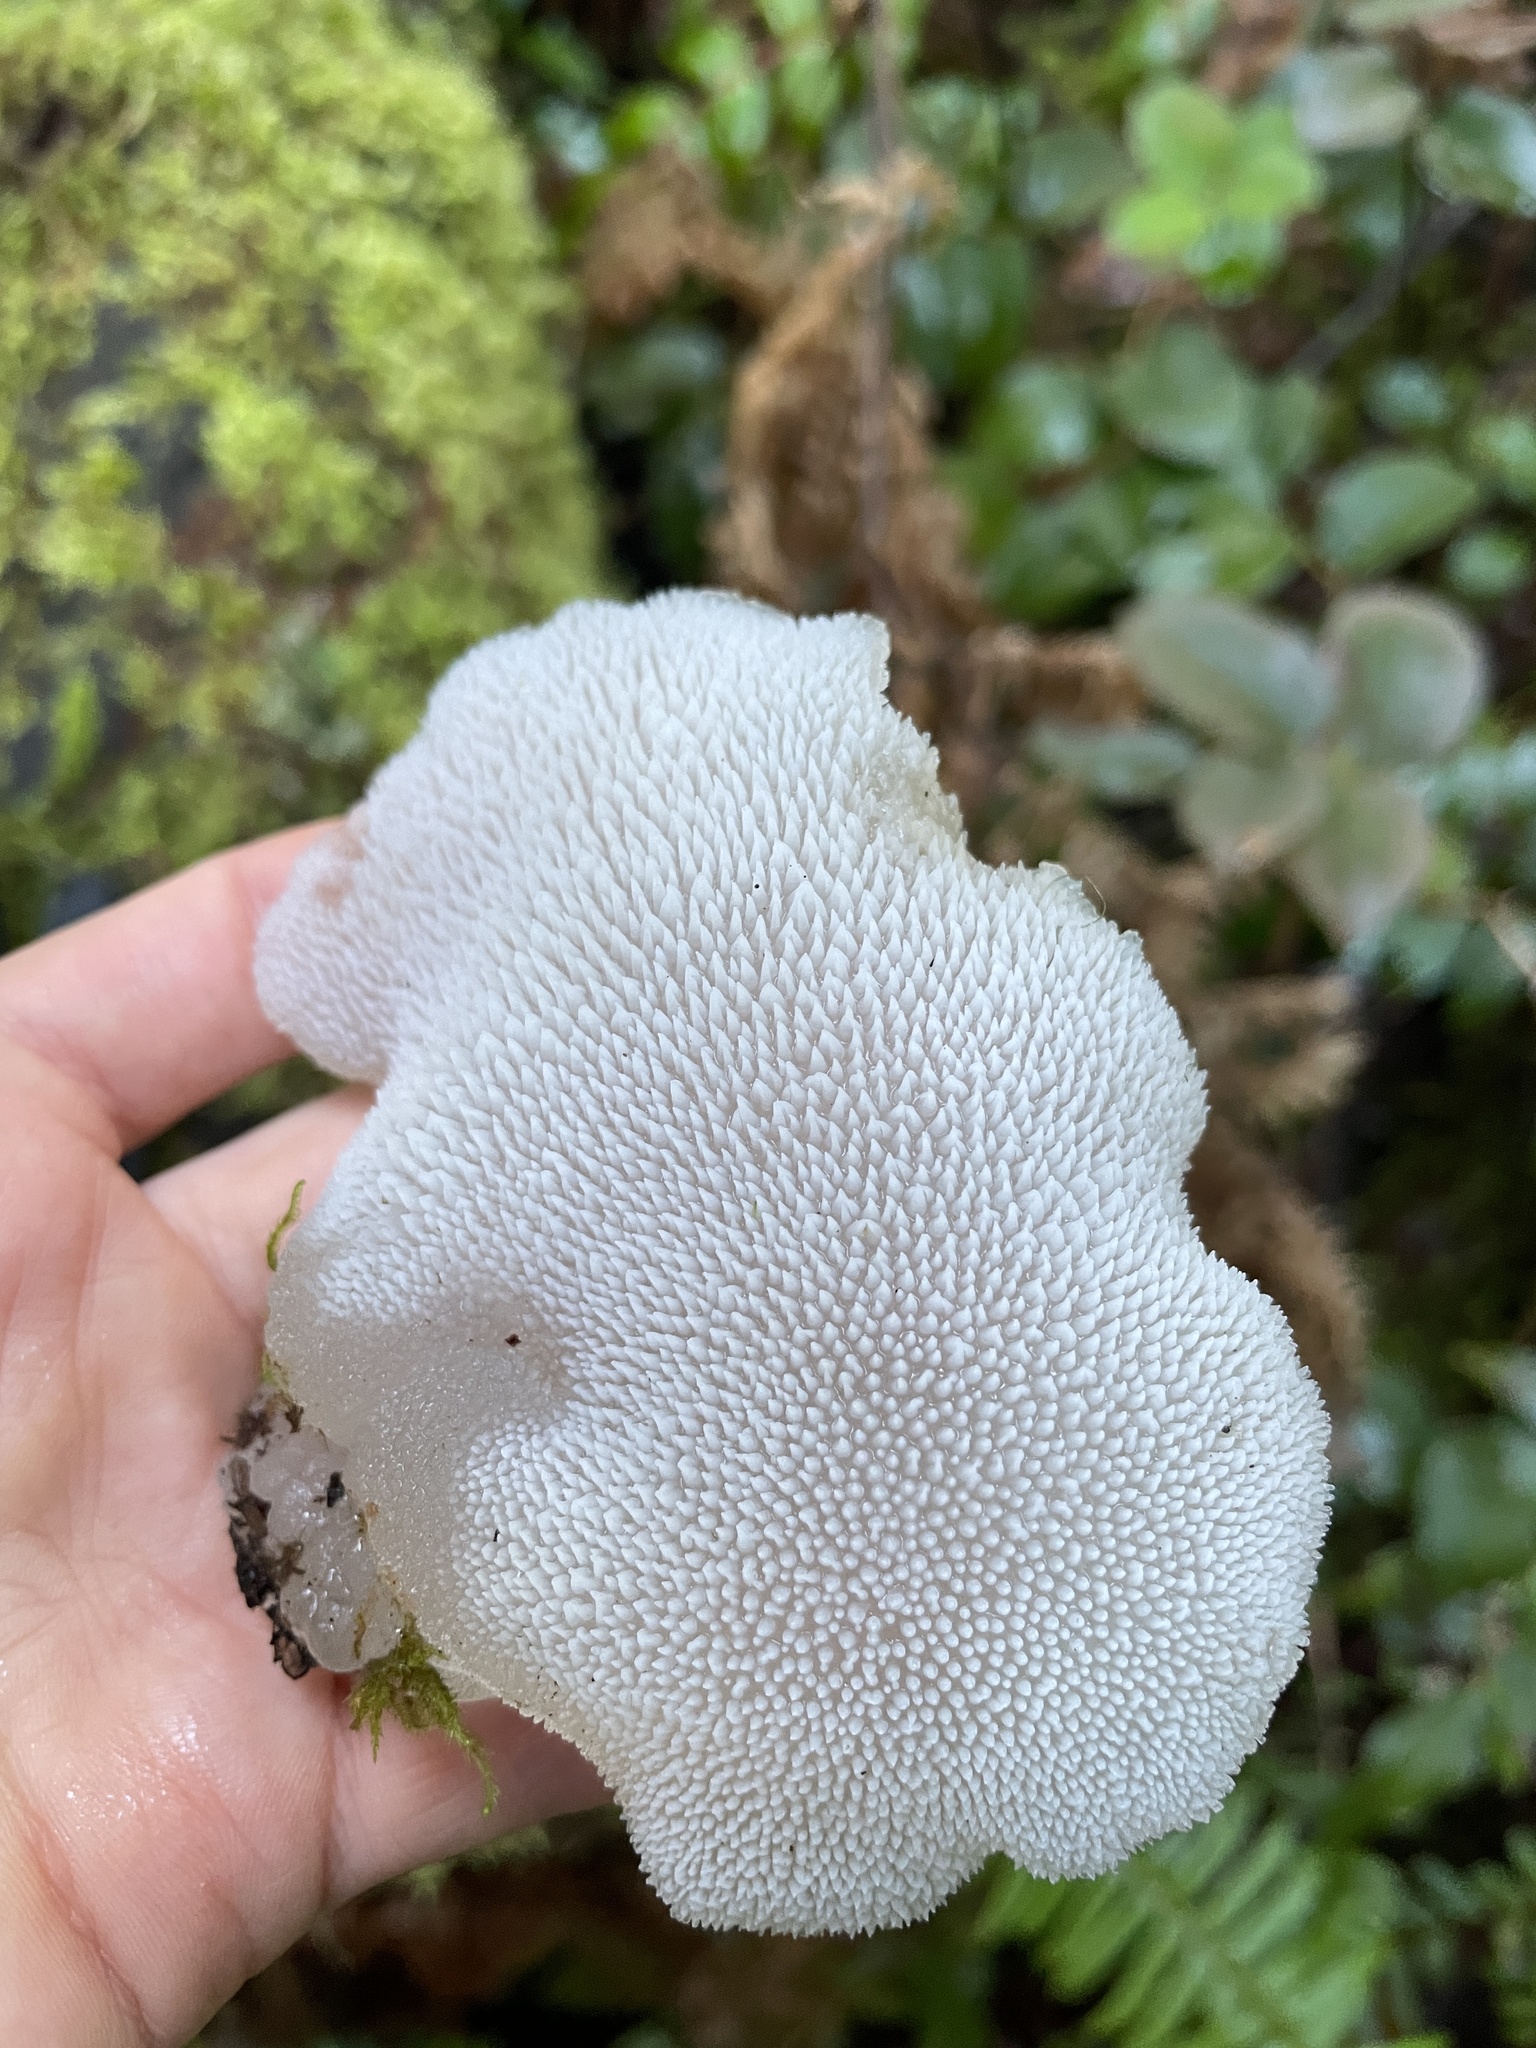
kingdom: Fungi
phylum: Basidiomycota
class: Agaricomycetes
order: Auriculariales
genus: Pseudohydnum
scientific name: Pseudohydnum gelatinosum
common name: Jelly tongue
